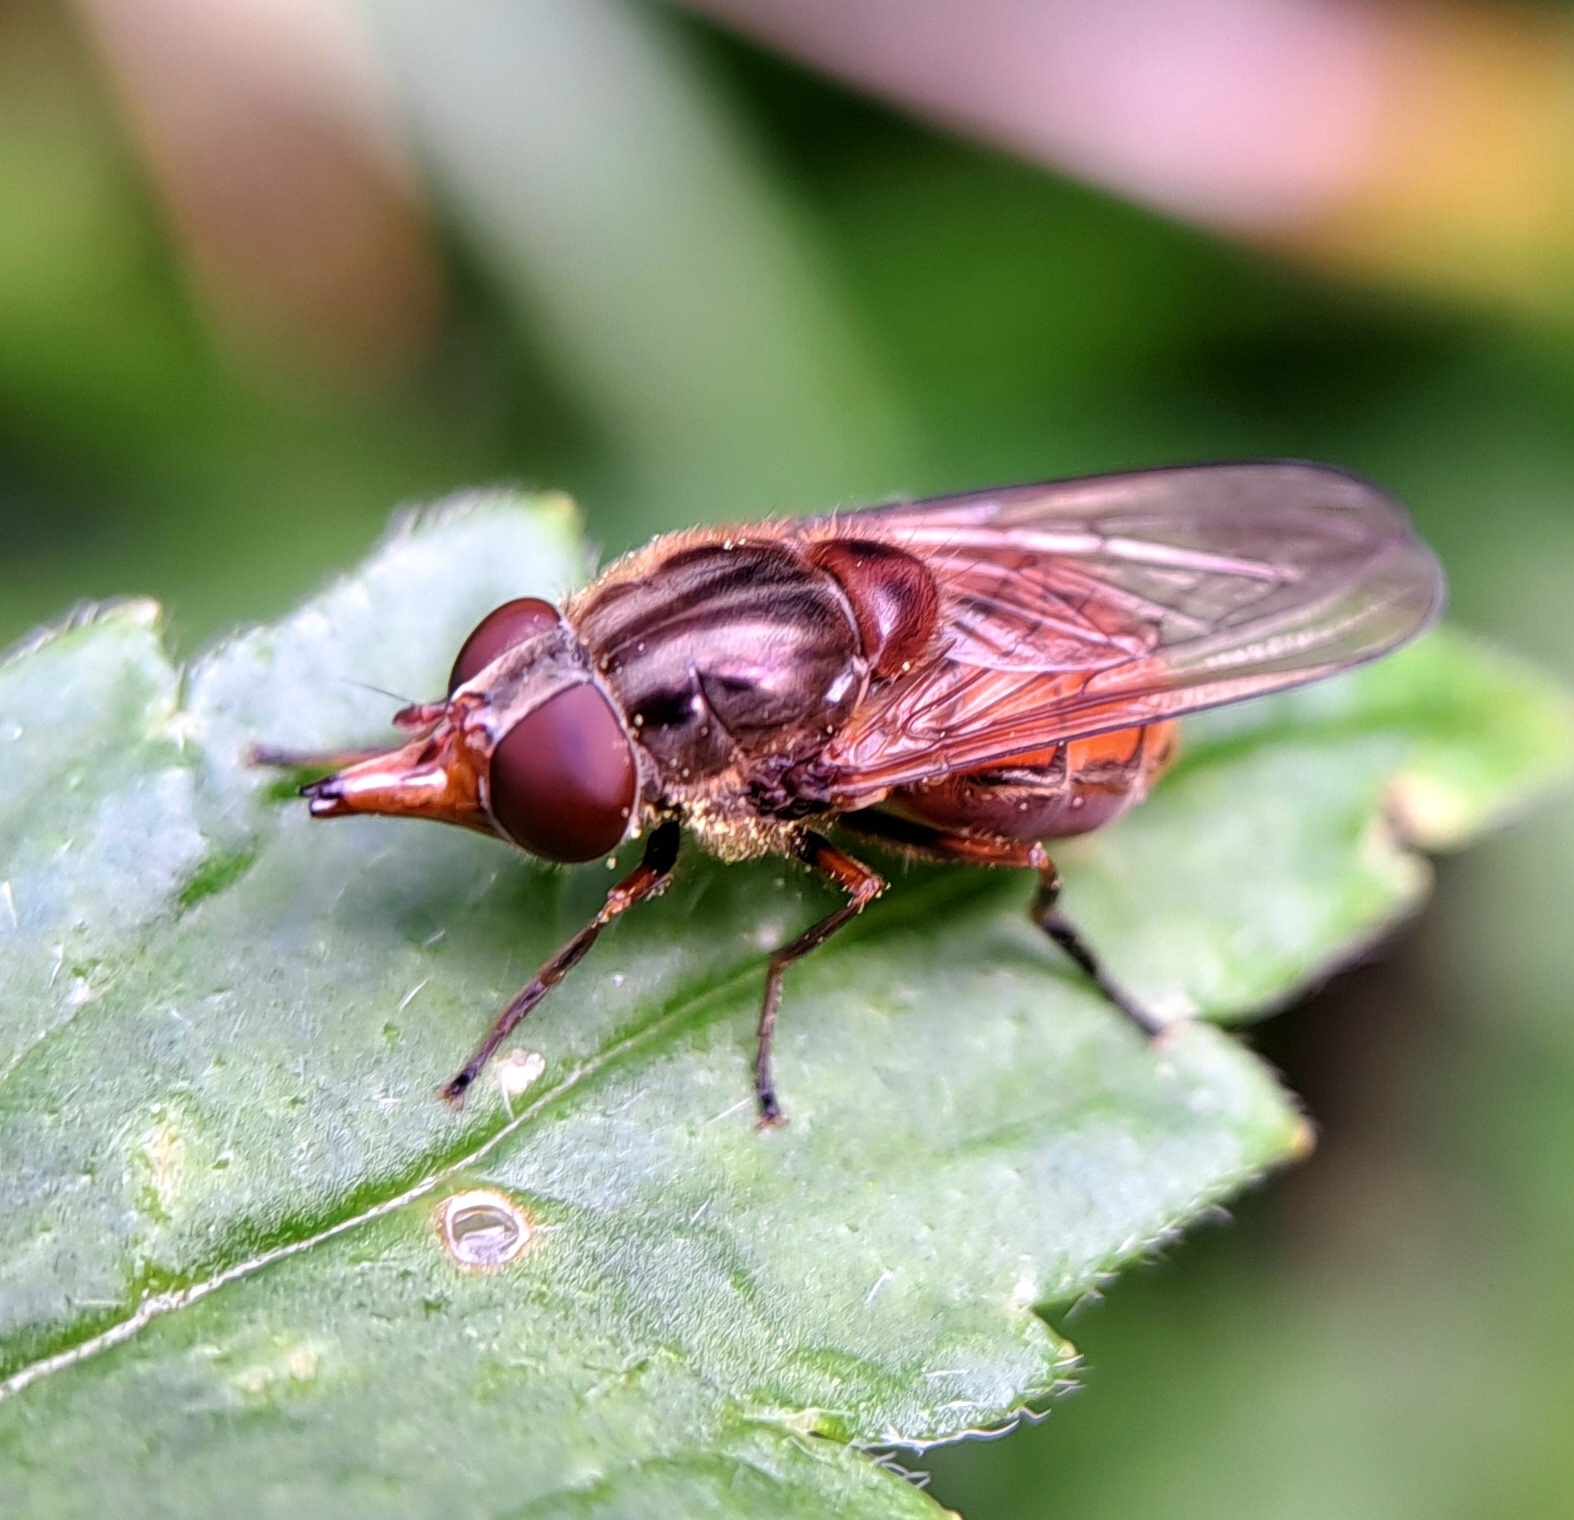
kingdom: Animalia
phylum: Arthropoda
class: Insecta
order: Diptera
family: Syrphidae
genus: Rhingia
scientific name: Rhingia campestris
